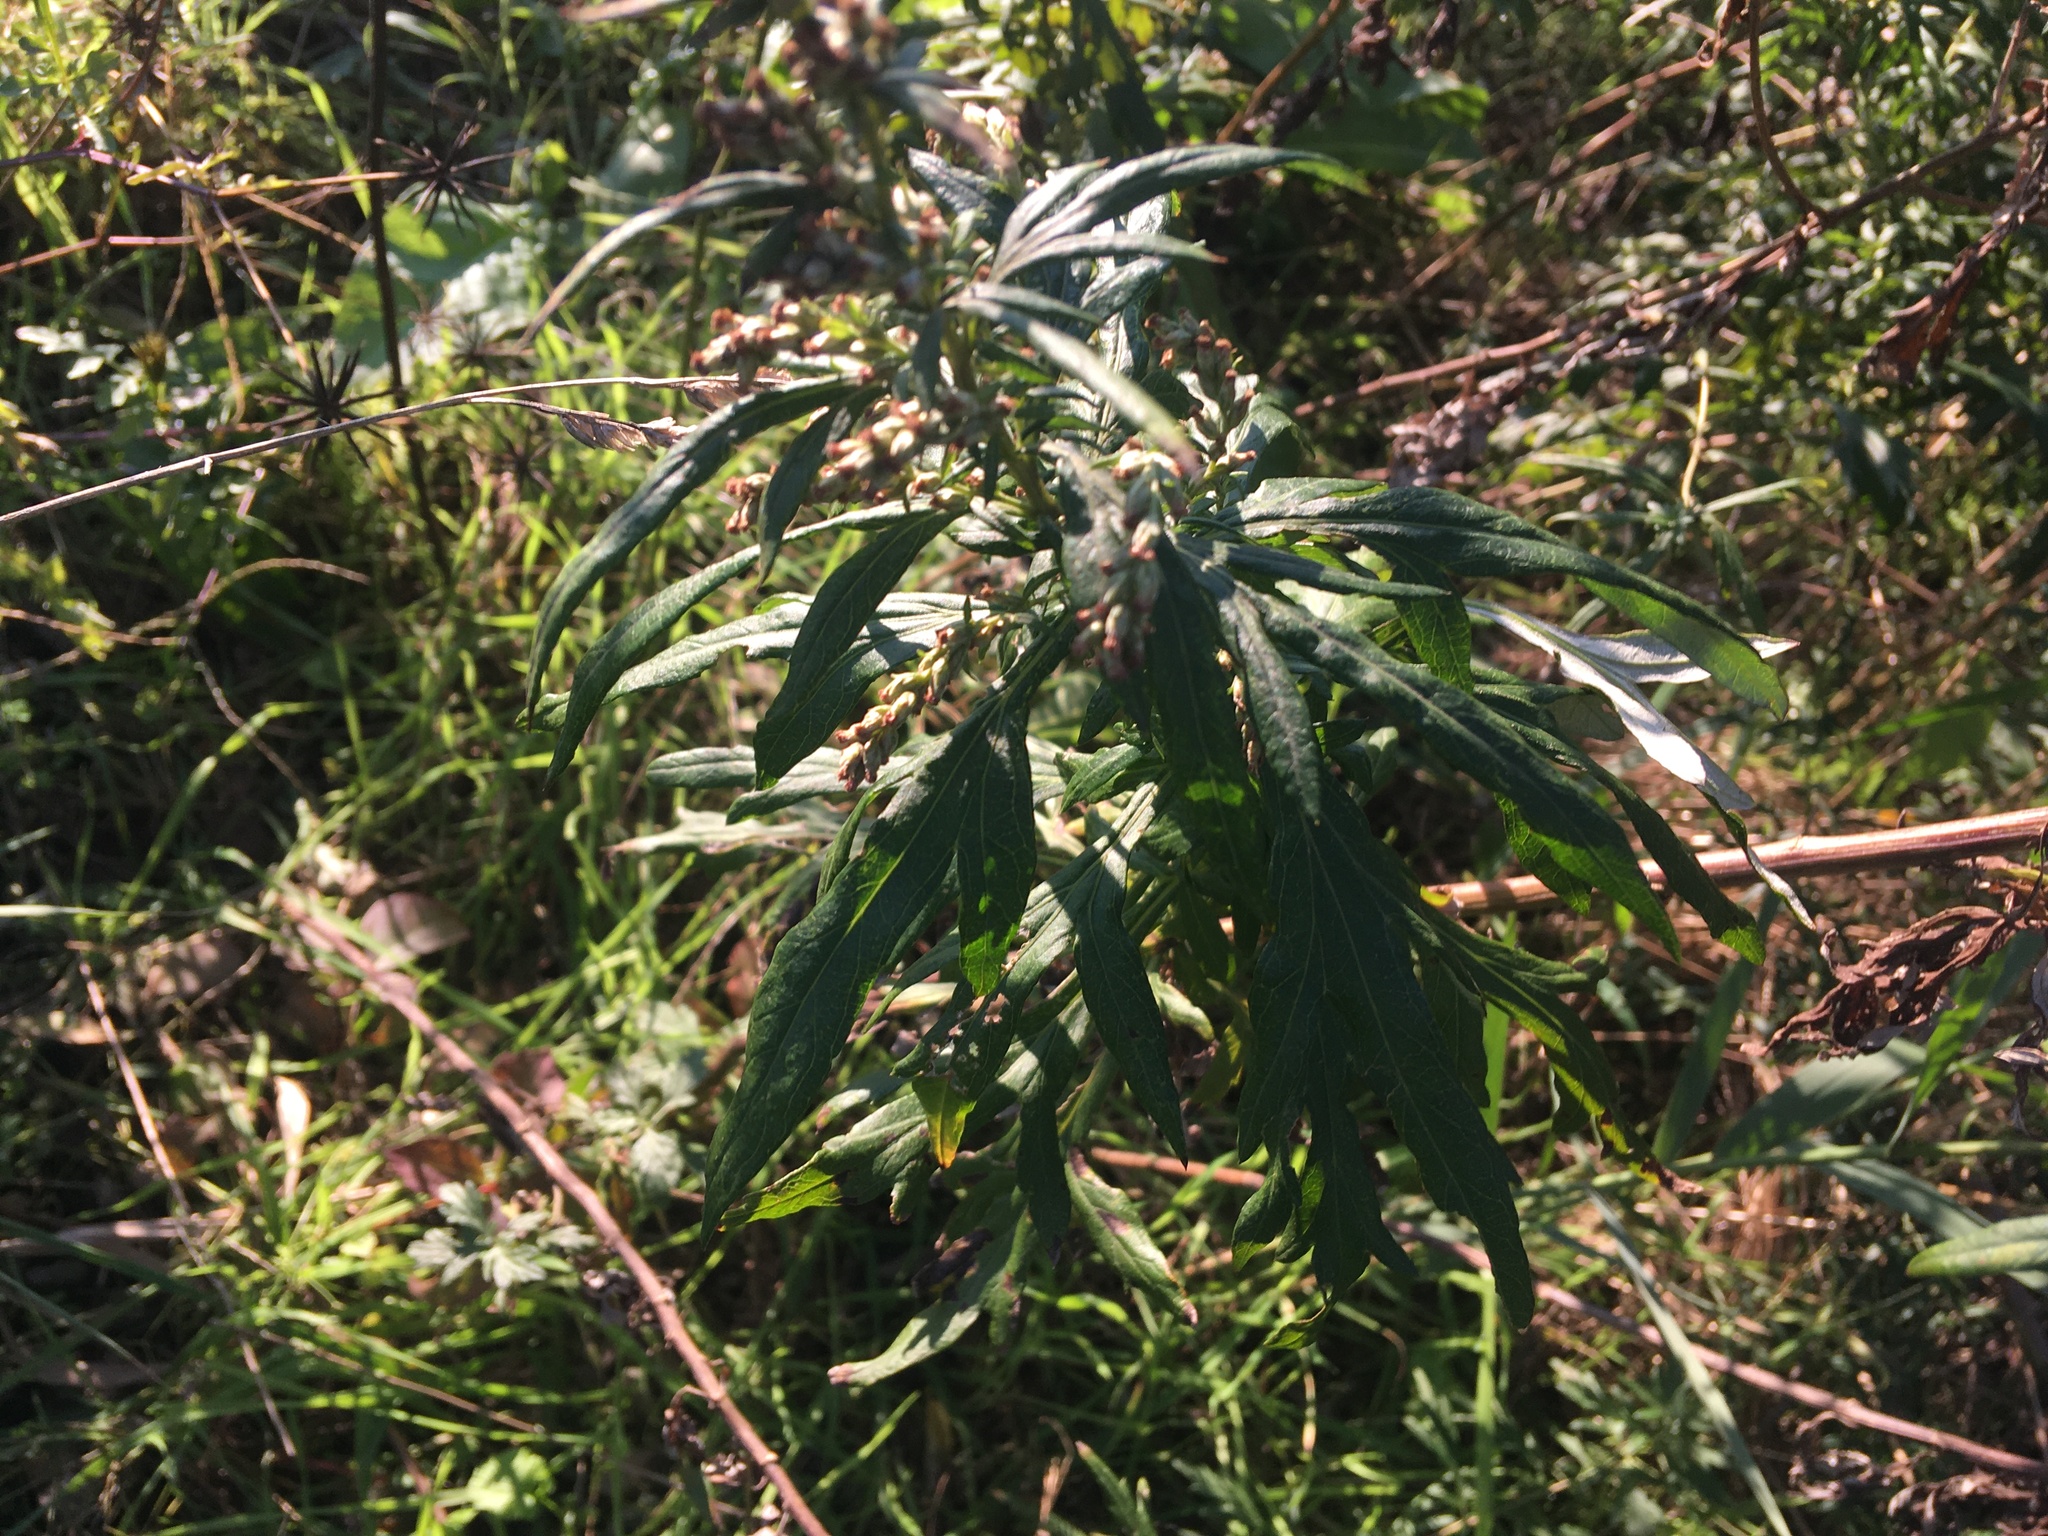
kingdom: Plantae
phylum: Tracheophyta
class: Magnoliopsida
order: Asterales
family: Asteraceae
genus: Artemisia
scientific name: Artemisia vulgaris
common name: Mugwort
